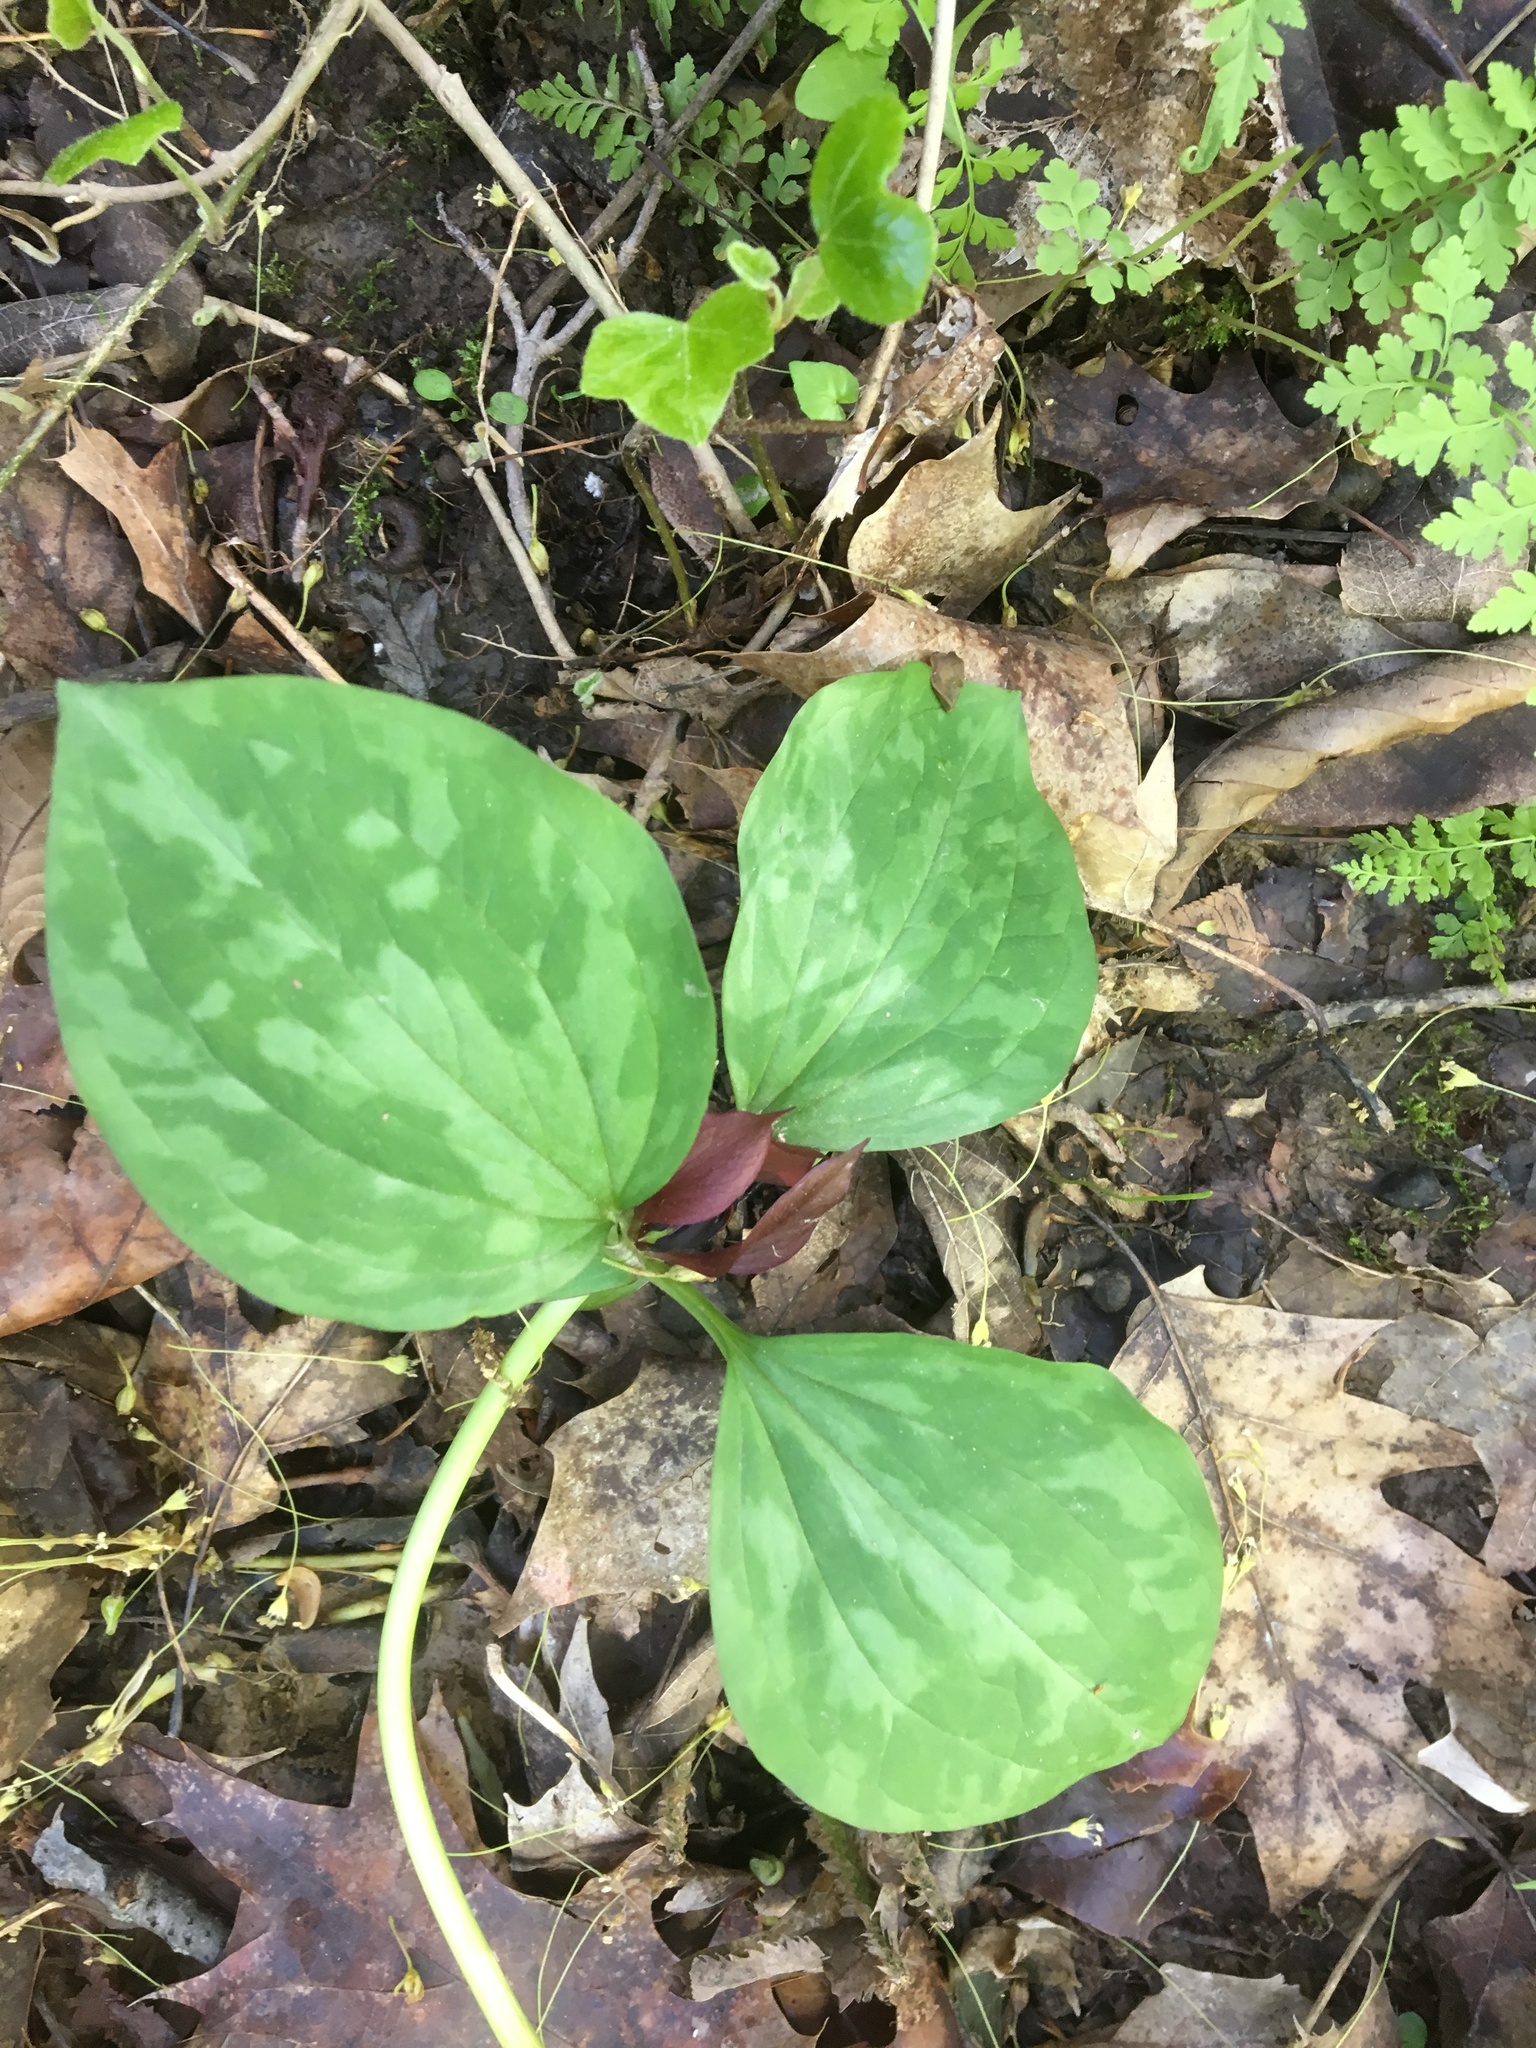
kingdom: Plantae
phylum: Tracheophyta
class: Liliopsida
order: Liliales
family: Melanthiaceae
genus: Trillium
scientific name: Trillium recurvatum
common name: Bloody butcher
